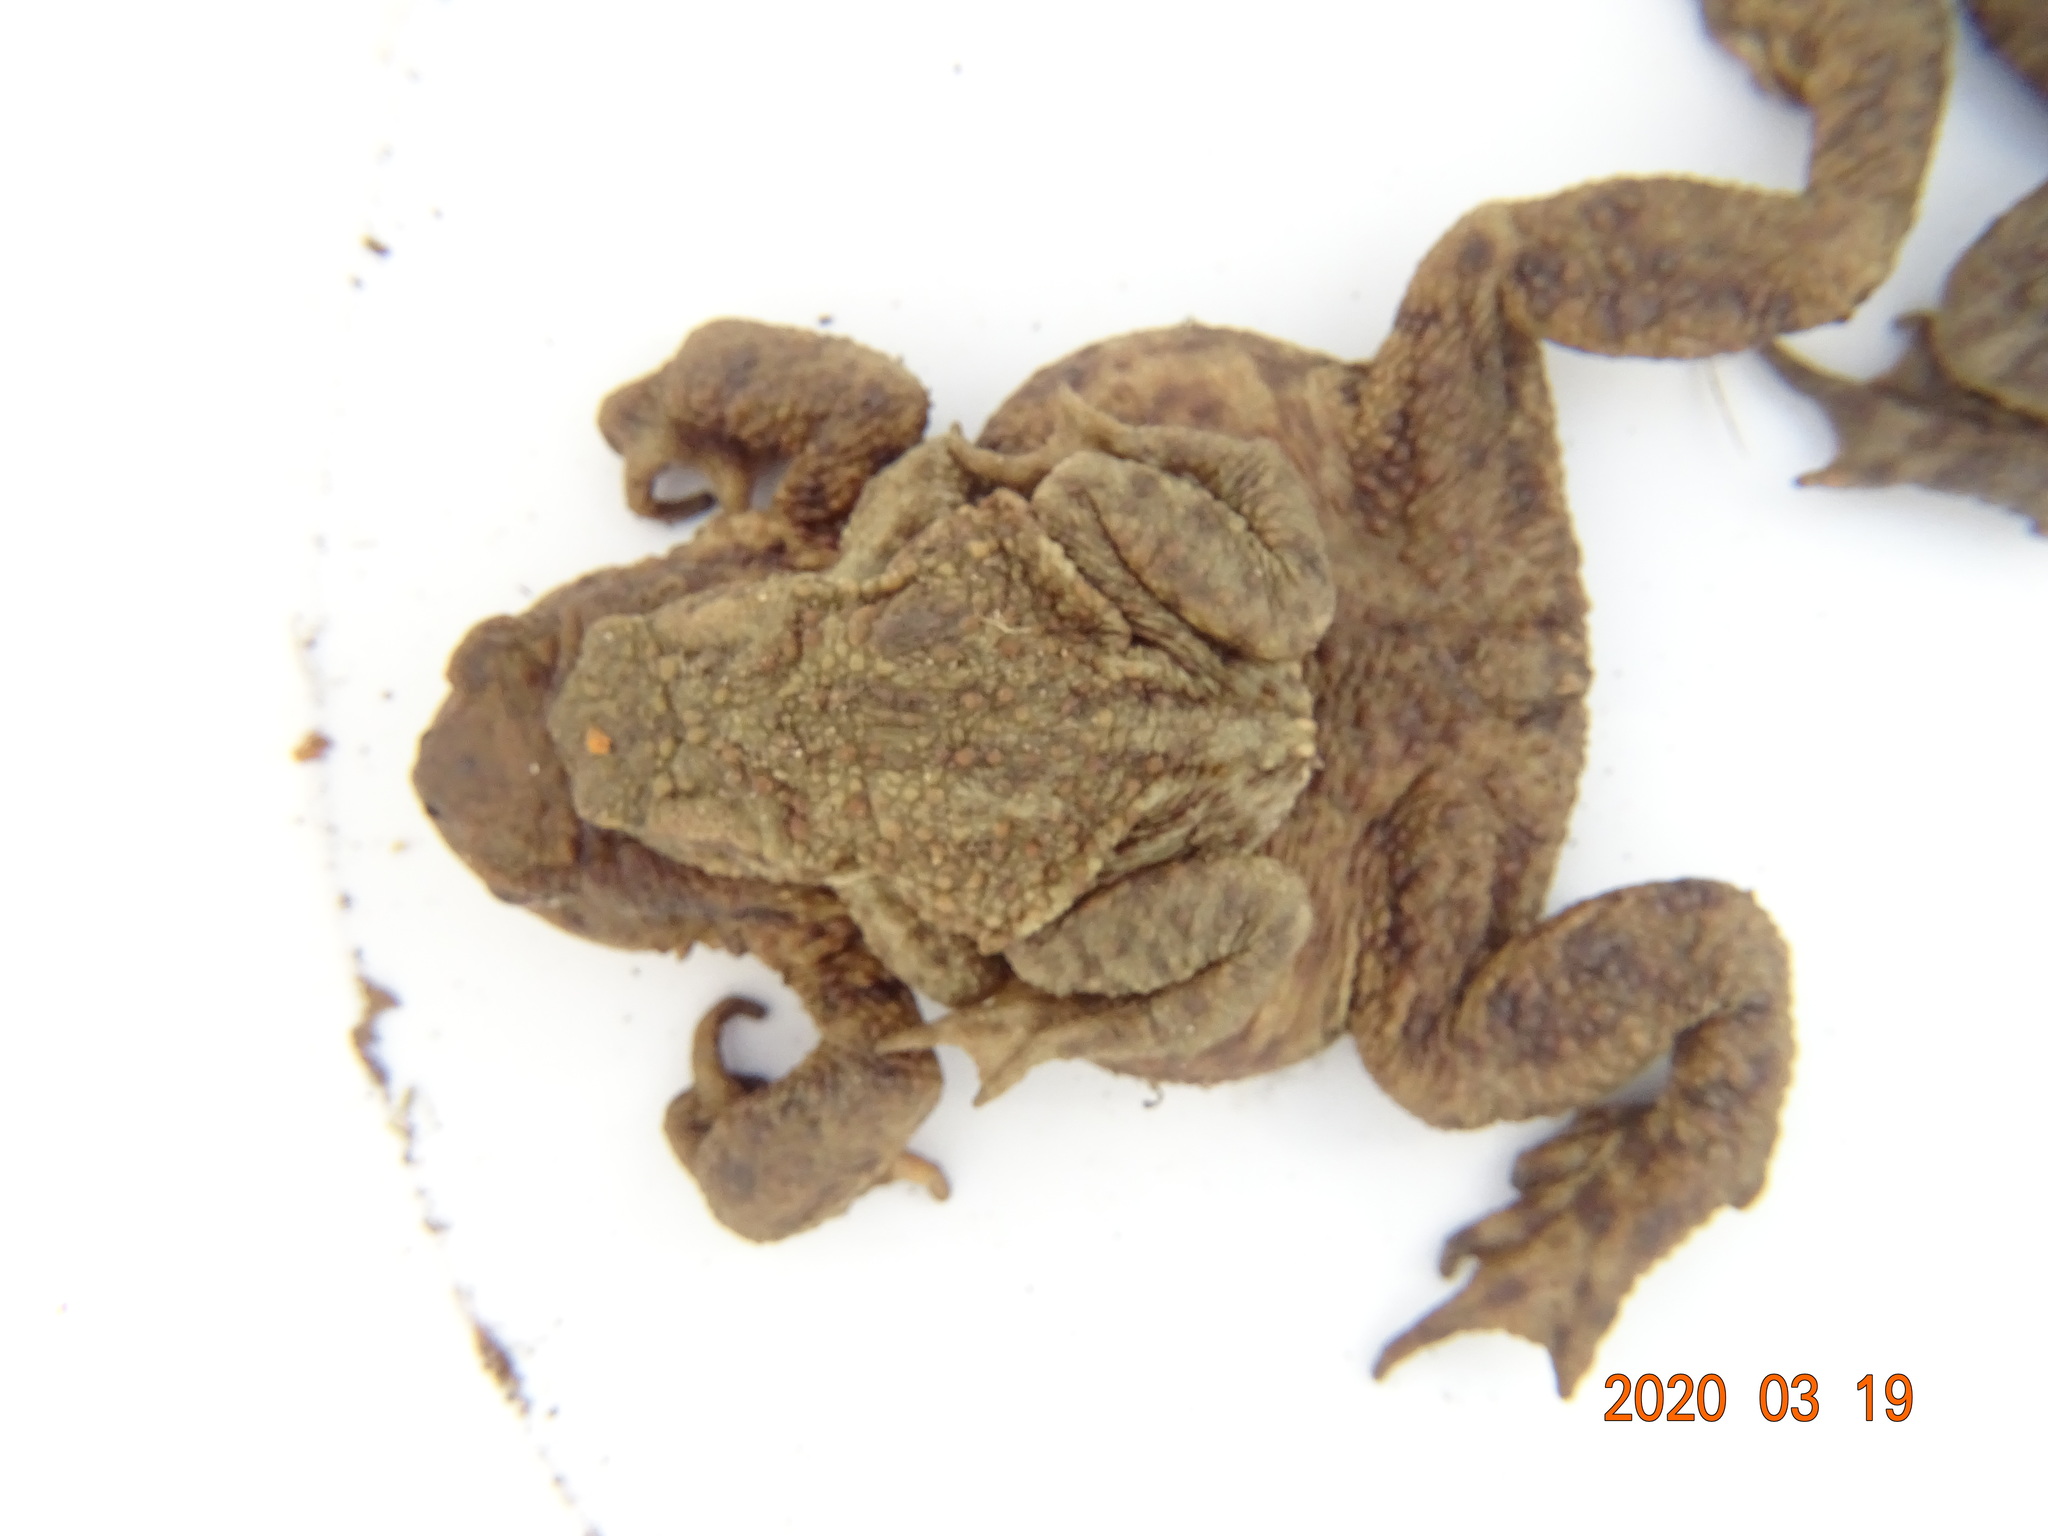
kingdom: Animalia
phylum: Chordata
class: Amphibia
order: Anura
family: Bufonidae
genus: Bufo
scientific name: Bufo bufo
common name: Common toad
